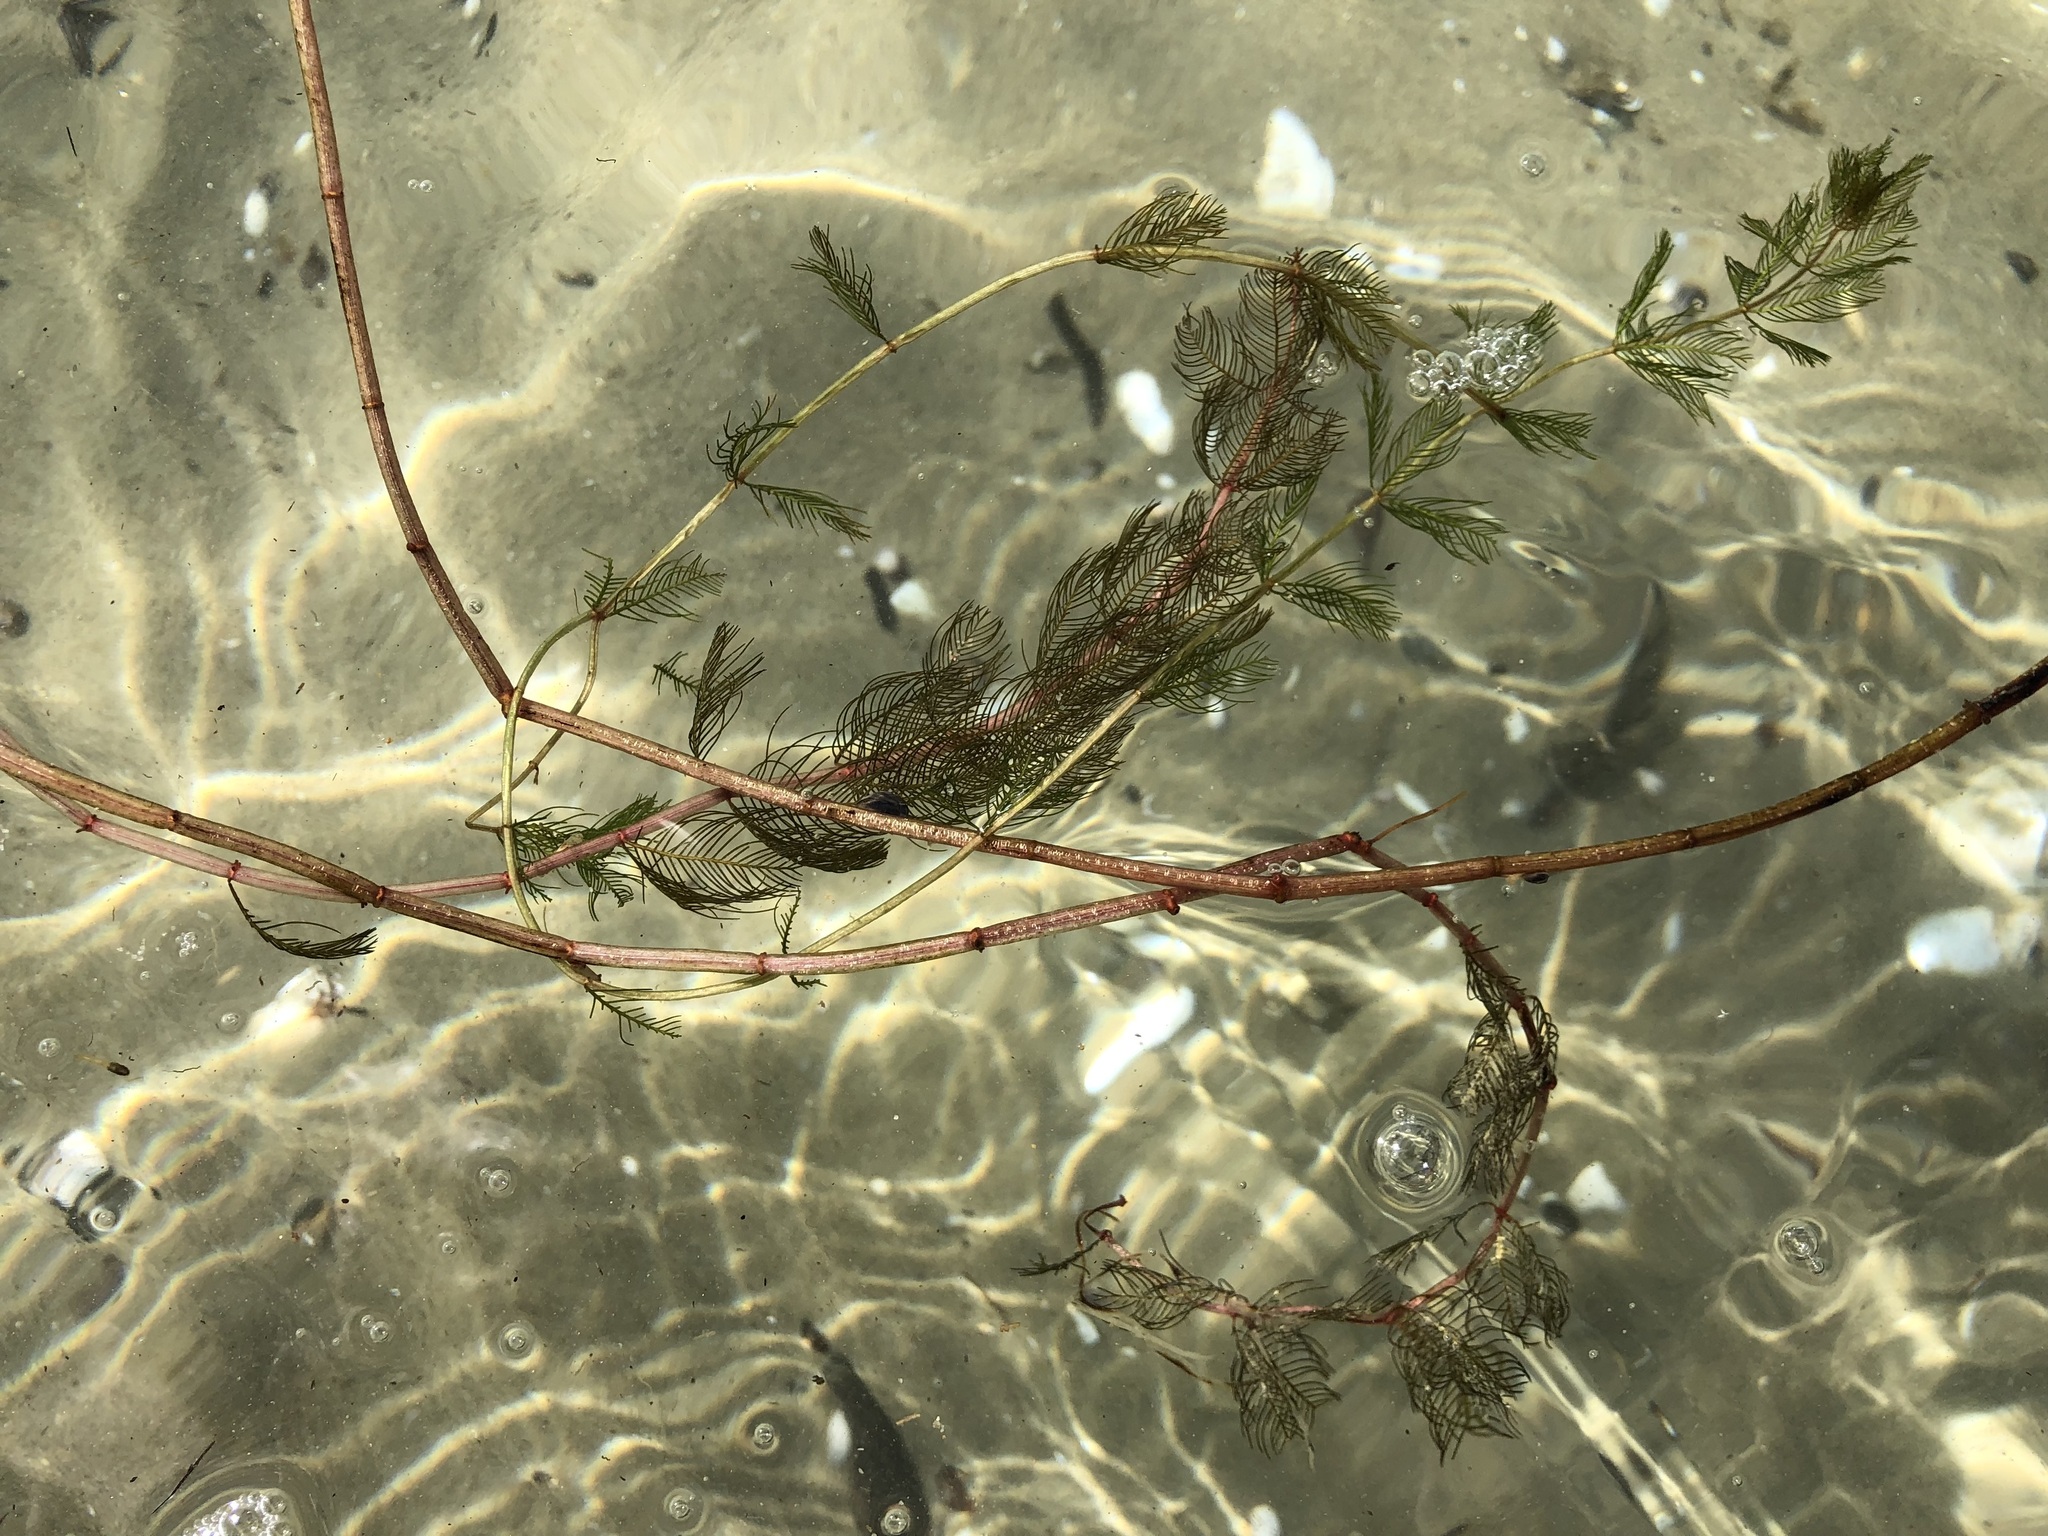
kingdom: Plantae
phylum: Tracheophyta
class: Magnoliopsida
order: Saxifragales
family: Haloragaceae
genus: Myriophyllum
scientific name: Myriophyllum spicatum
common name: Spiked water-milfoil
